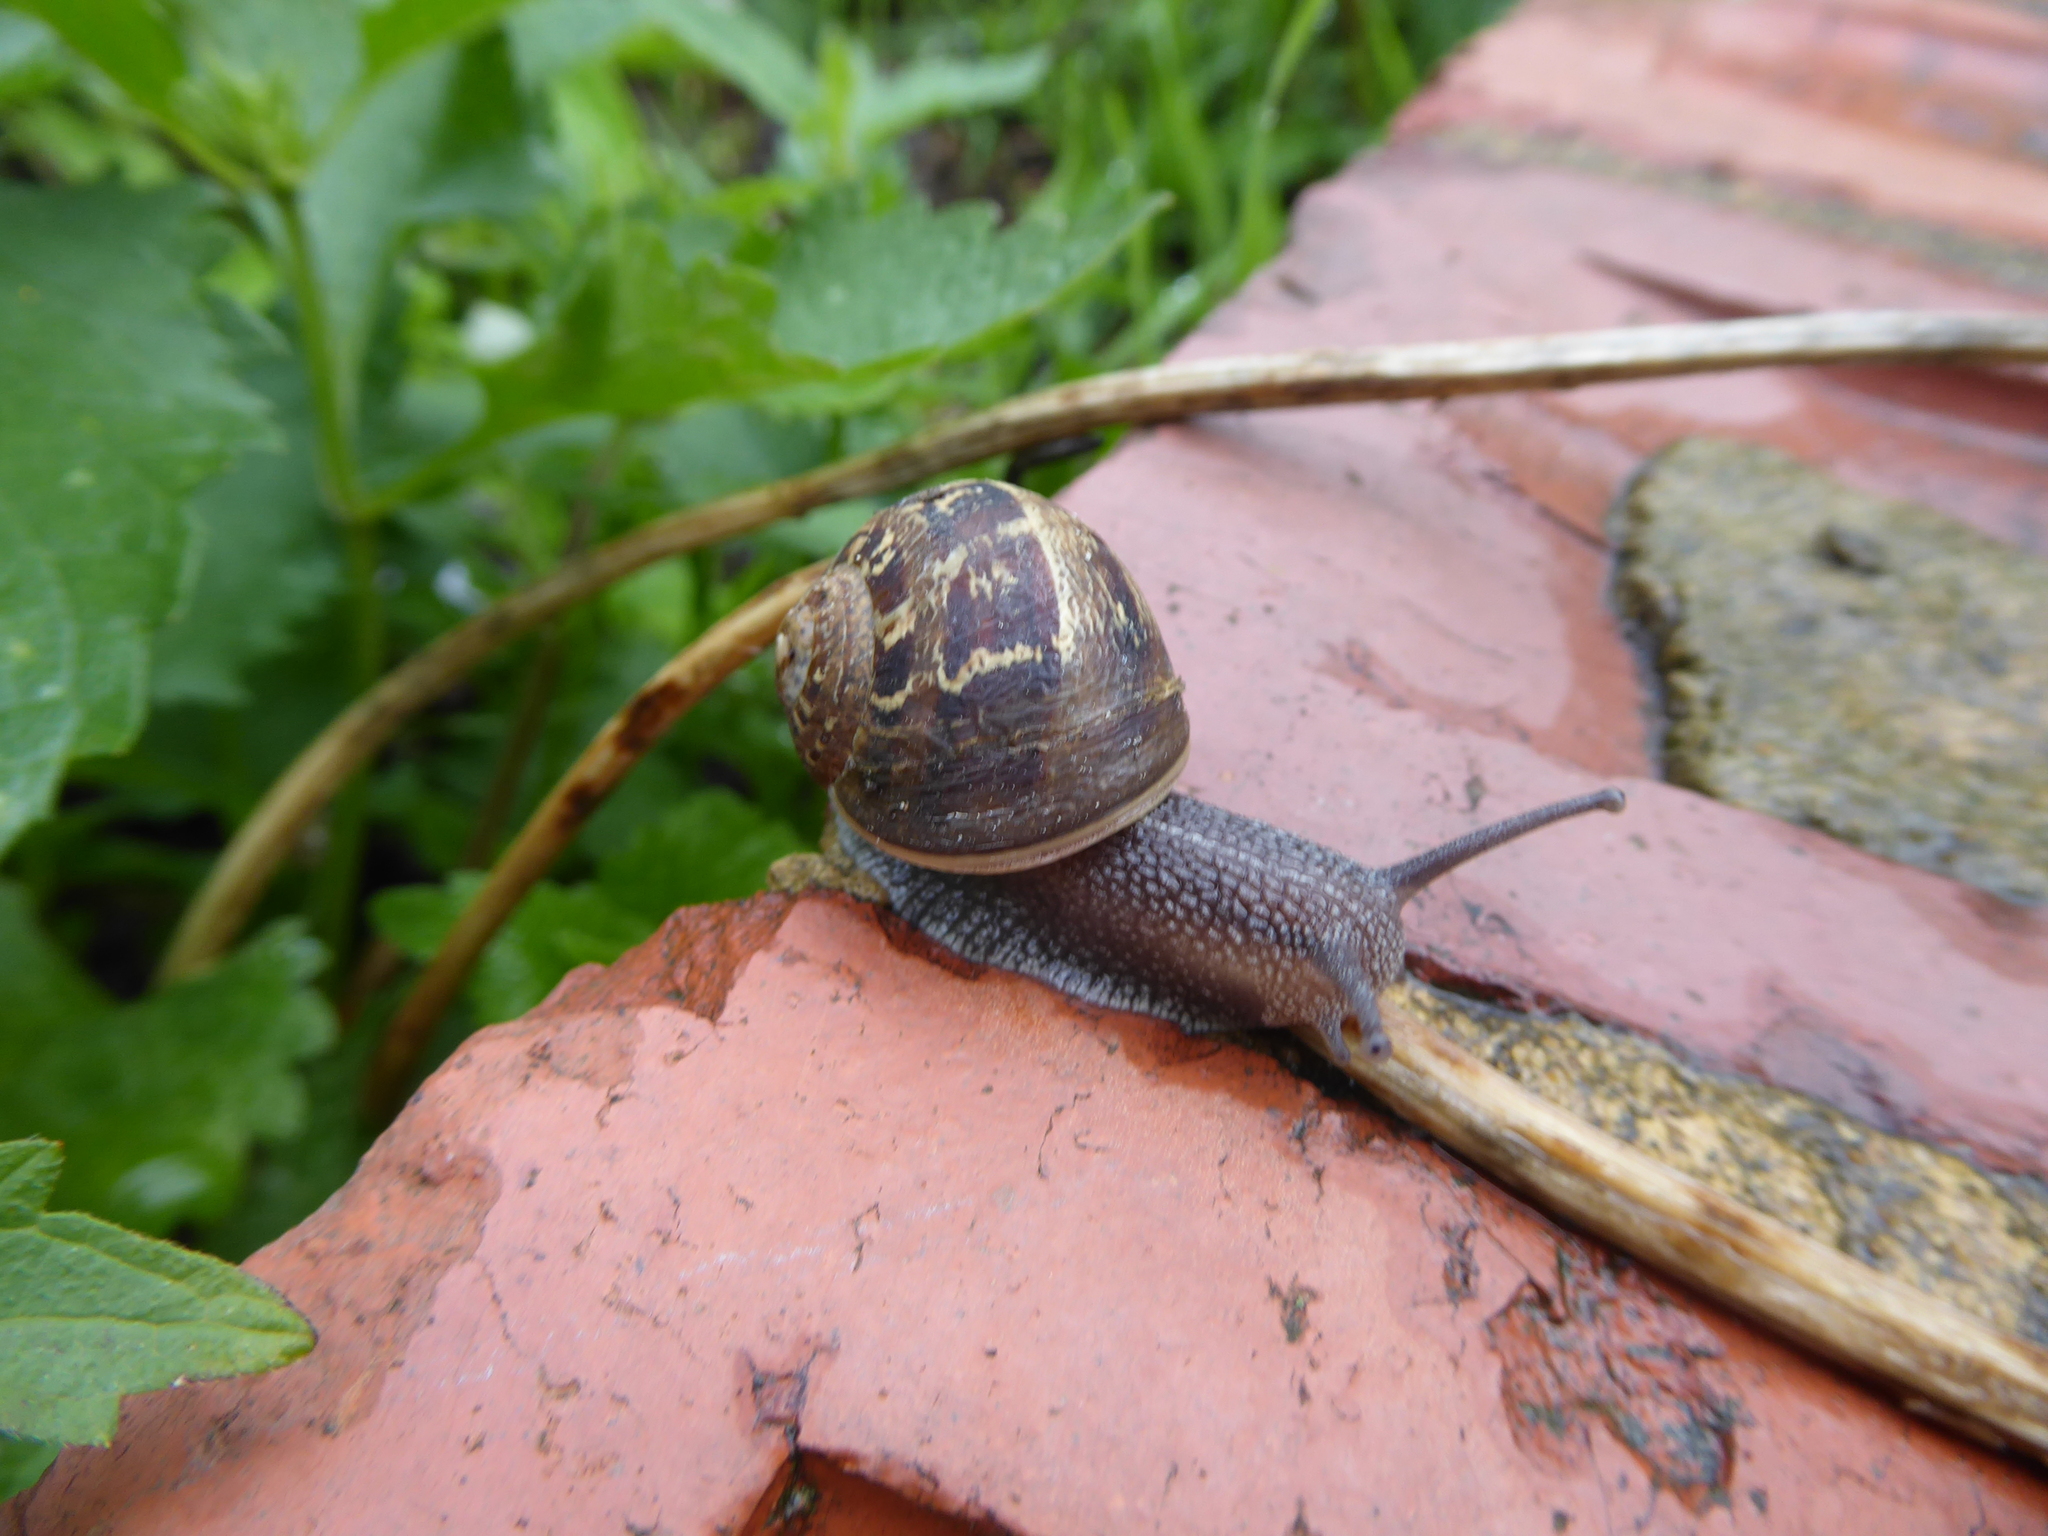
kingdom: Animalia
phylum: Mollusca
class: Gastropoda
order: Stylommatophora
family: Helicidae
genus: Cornu
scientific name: Cornu aspersum
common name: Brown garden snail
